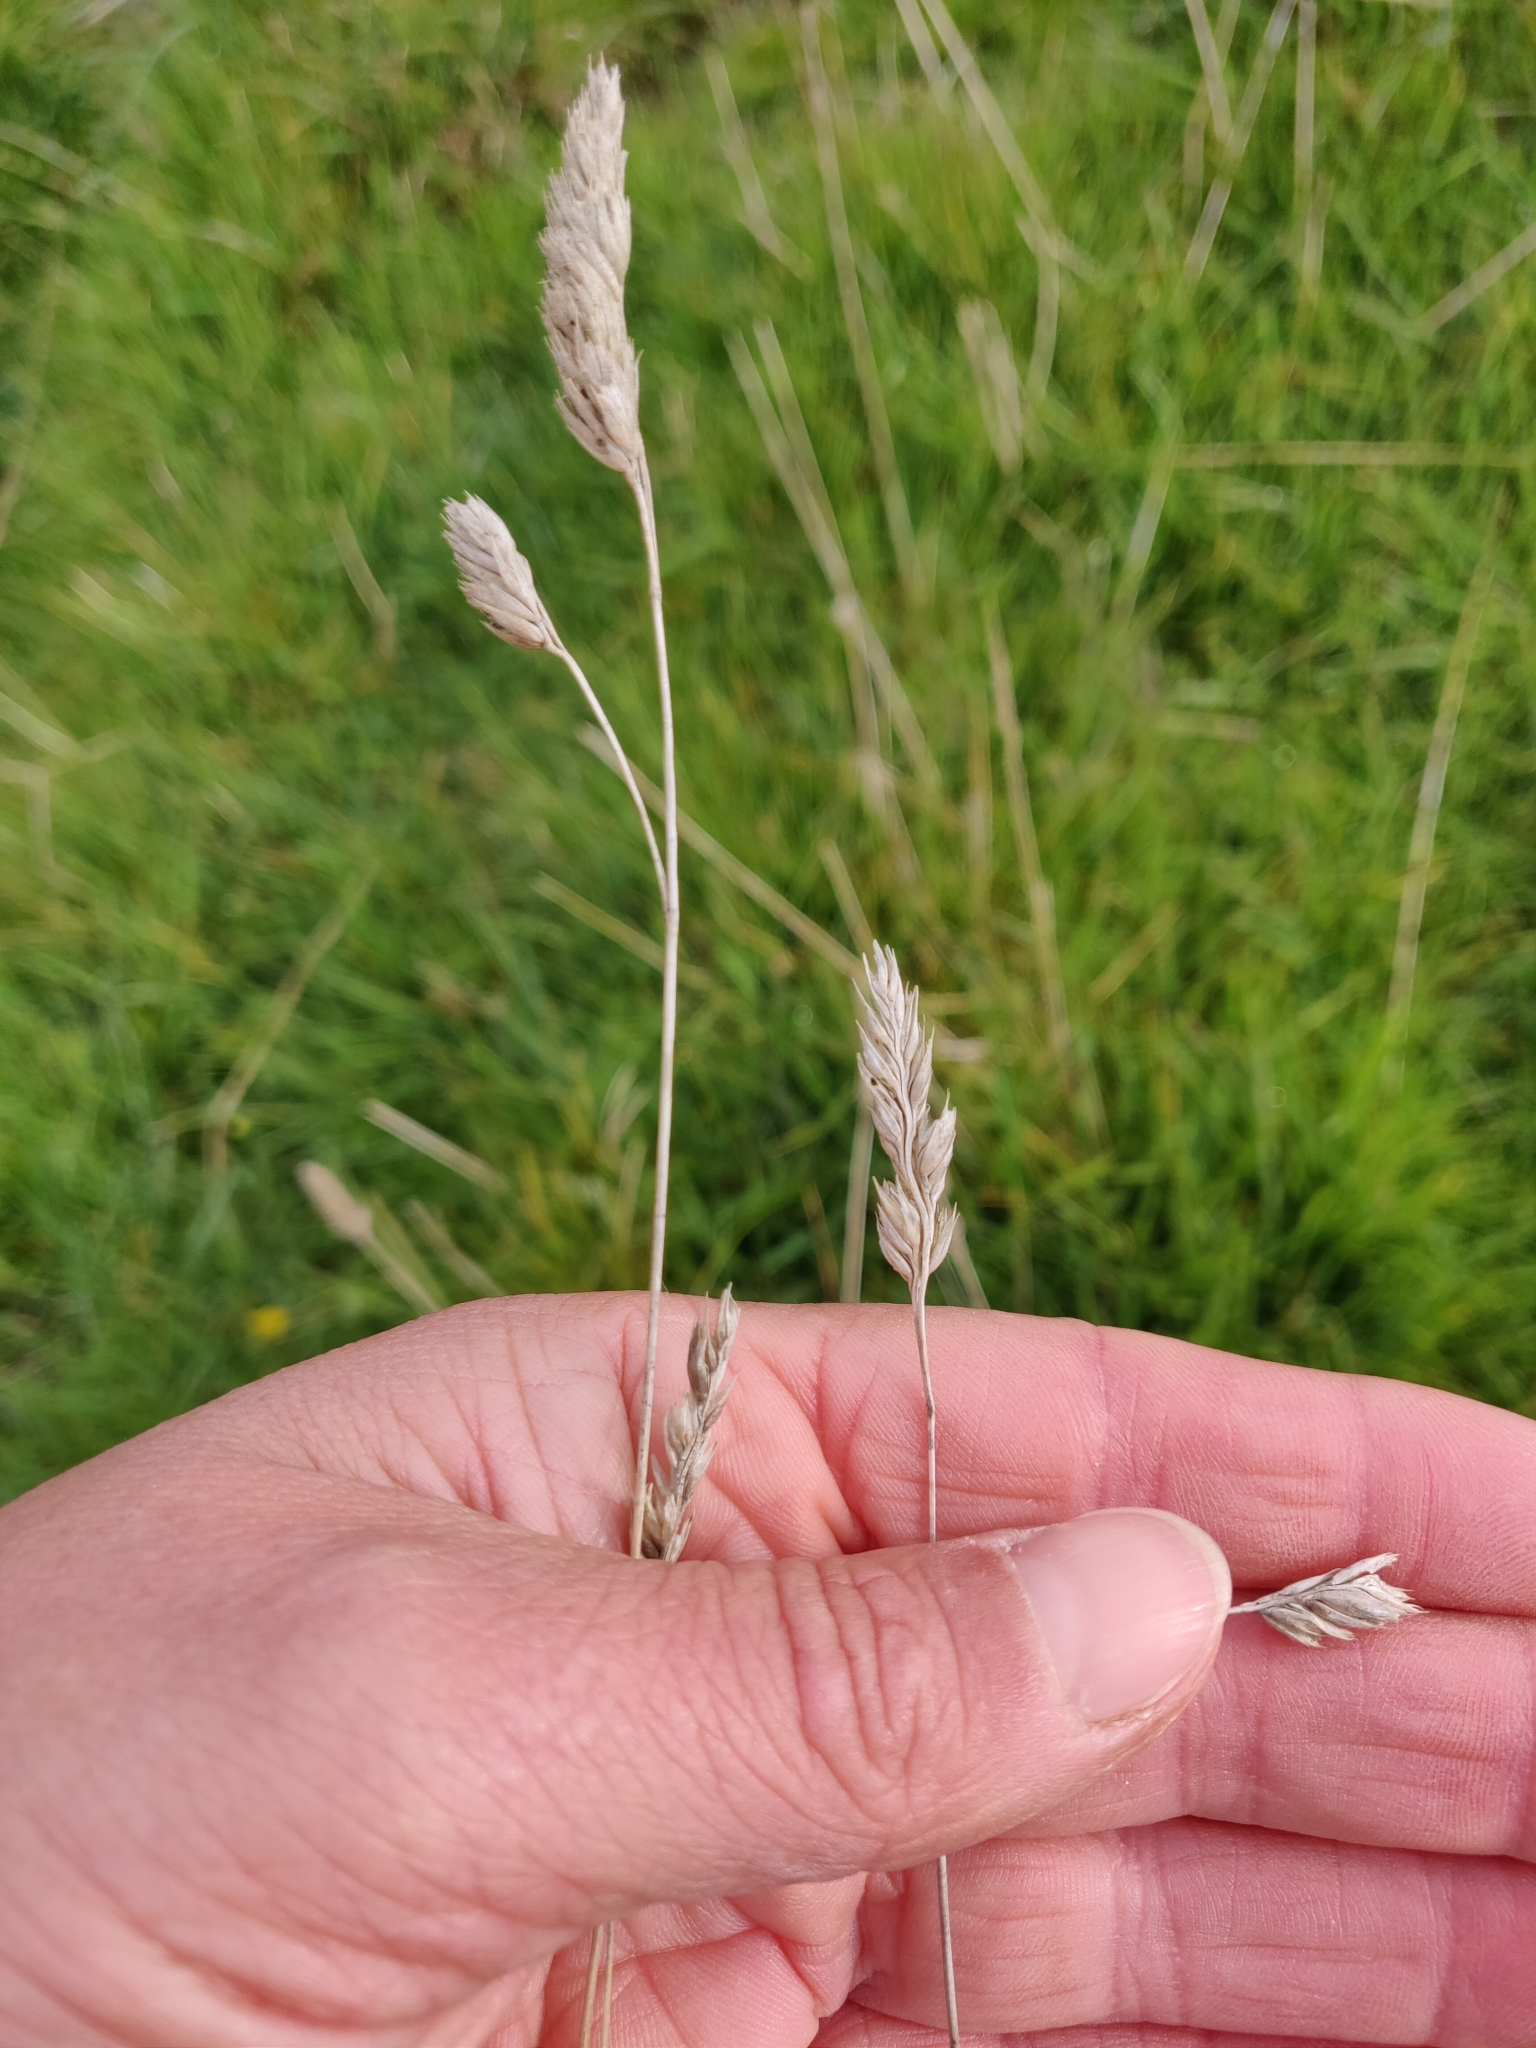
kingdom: Plantae
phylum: Tracheophyta
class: Liliopsida
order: Poales
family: Poaceae
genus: Dactylis
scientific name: Dactylis glomerata
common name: Orchardgrass
